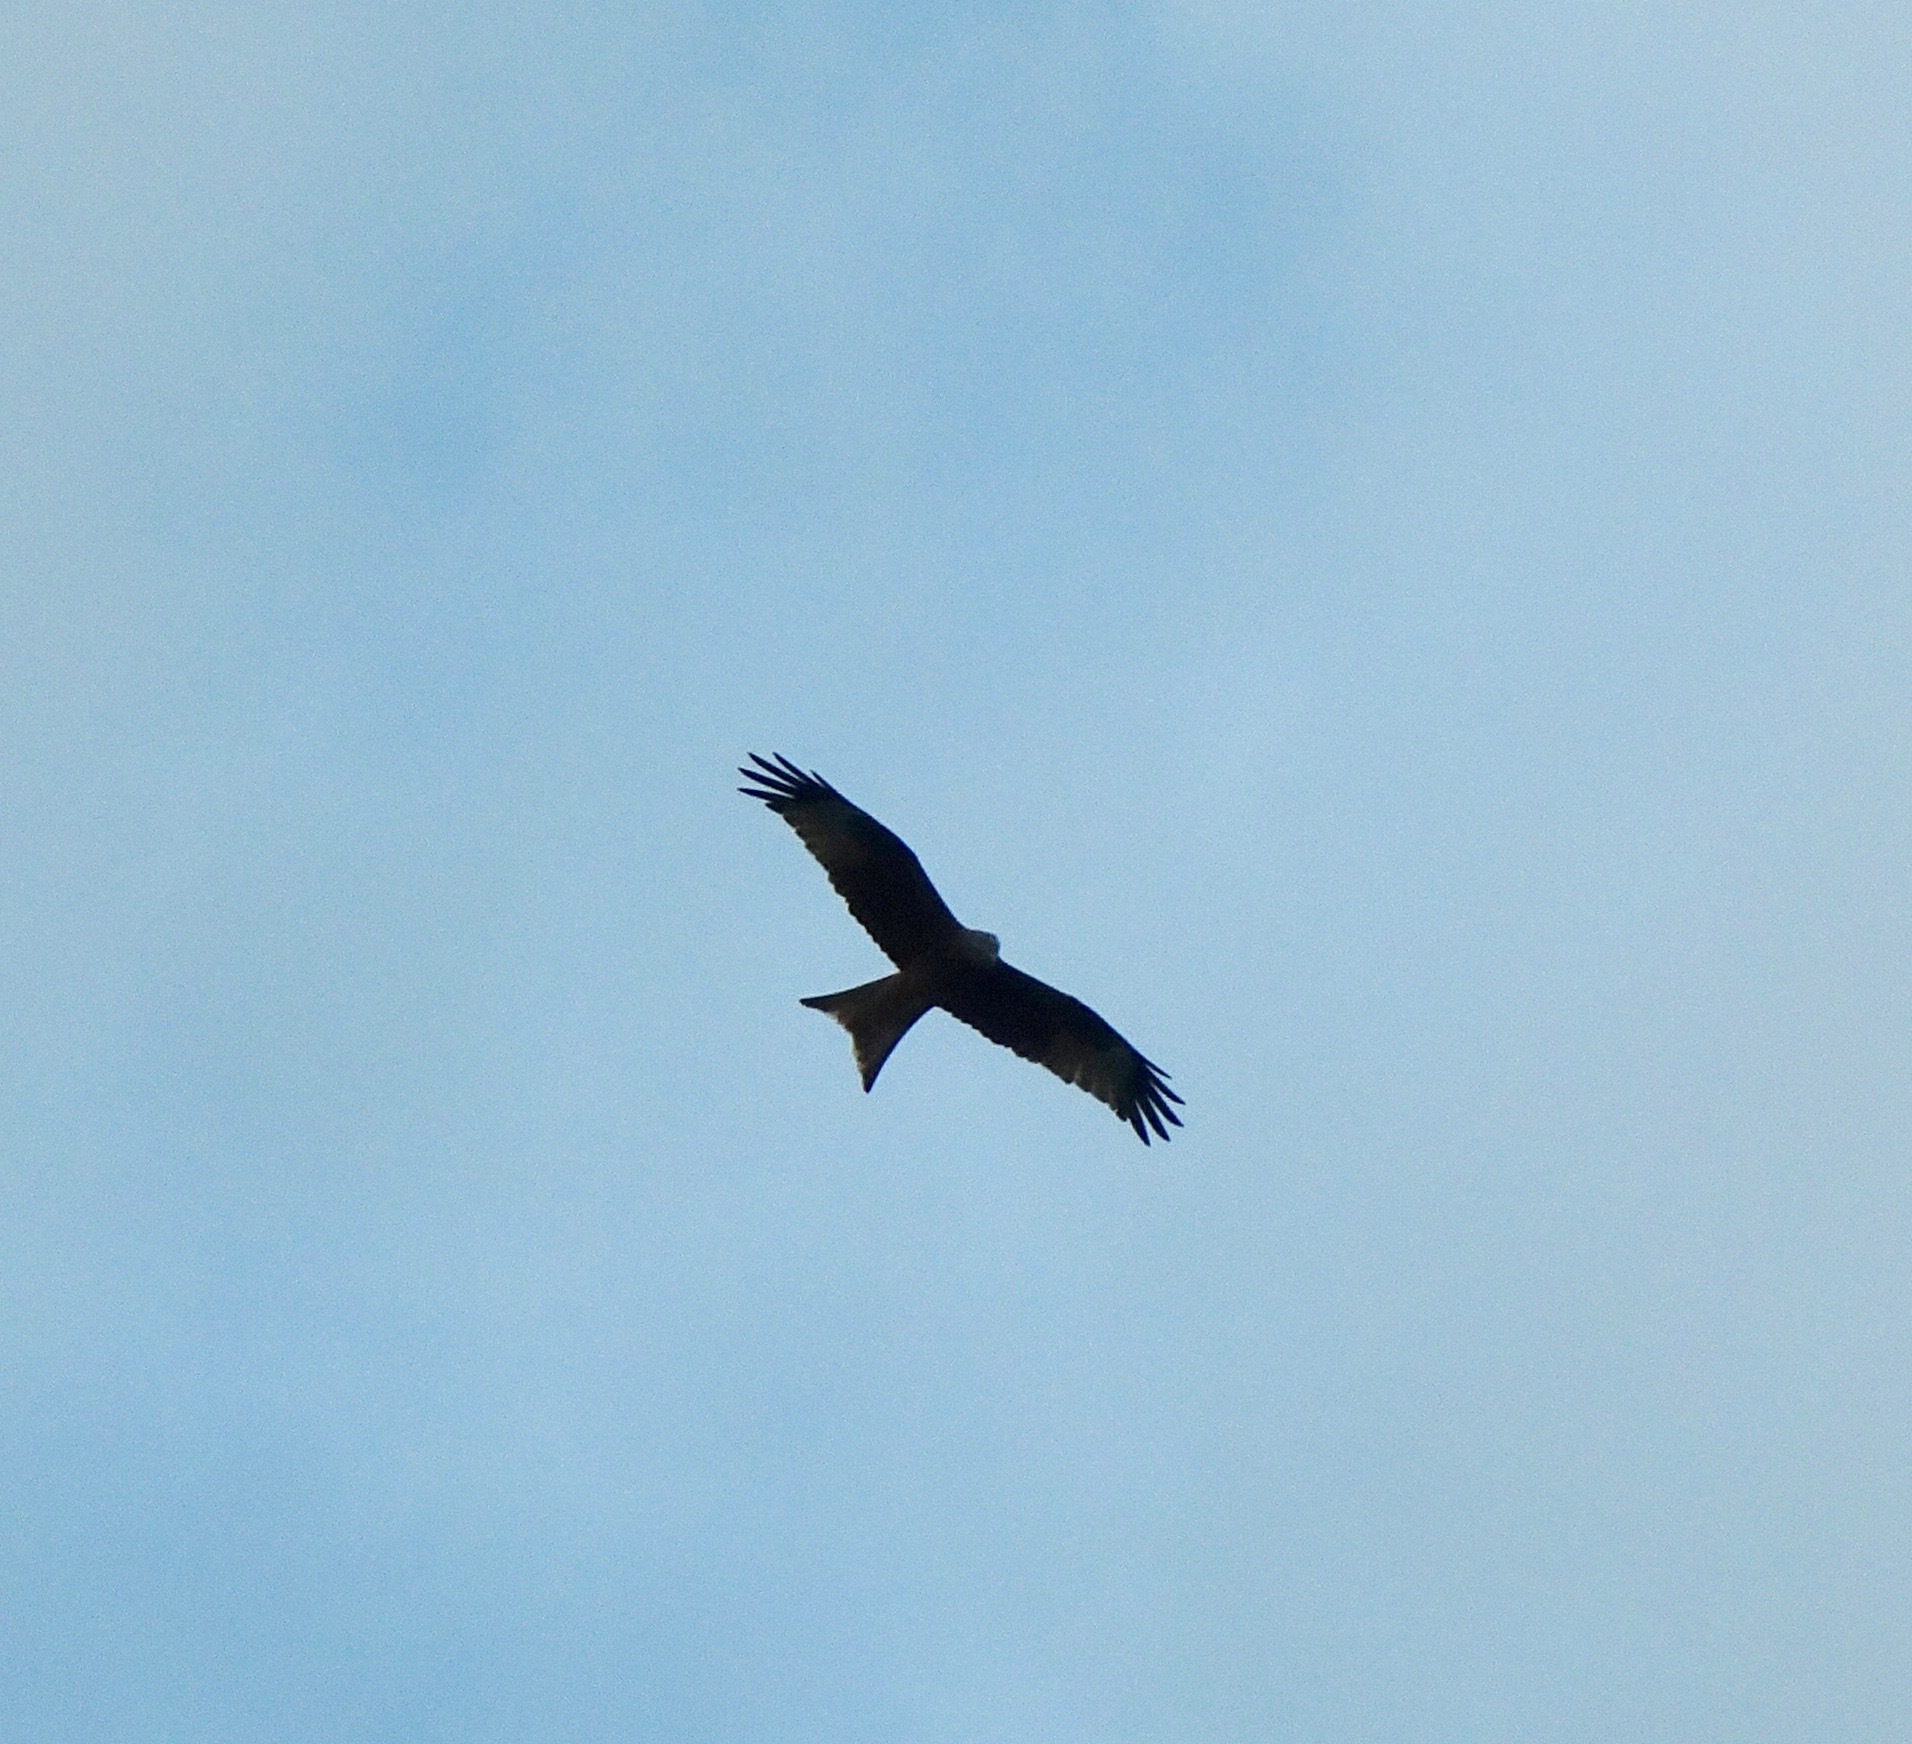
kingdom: Animalia
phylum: Chordata
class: Aves
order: Accipitriformes
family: Accipitridae
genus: Milvus
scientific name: Milvus milvus
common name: Red kite
